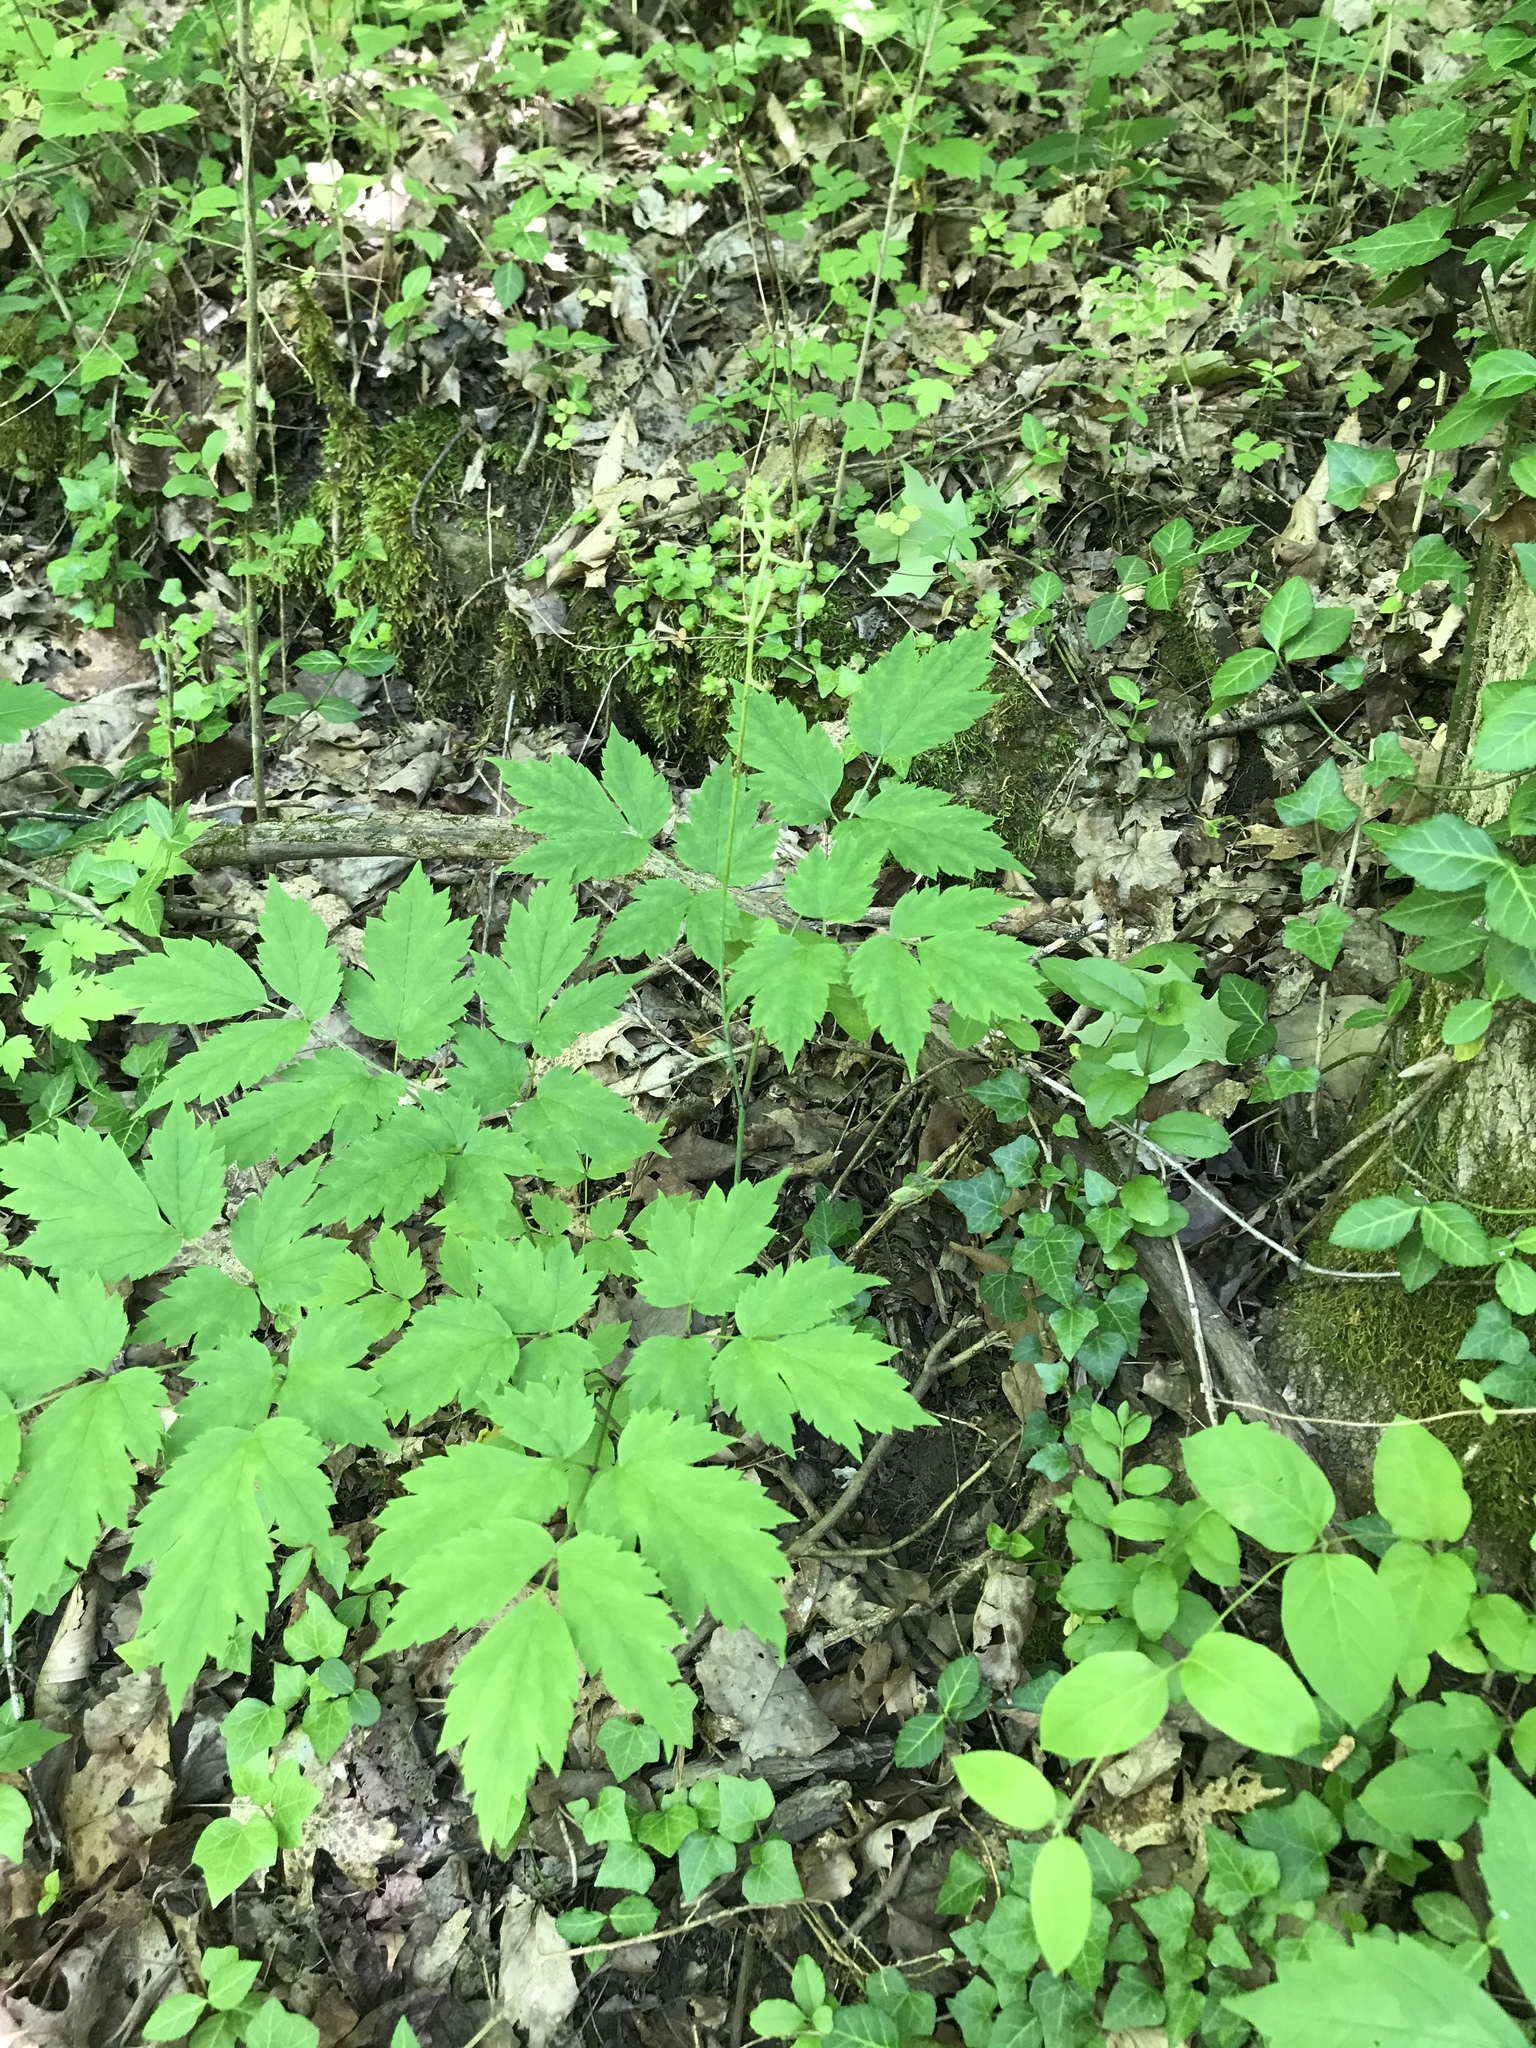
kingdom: Plantae
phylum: Tracheophyta
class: Magnoliopsida
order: Ranunculales
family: Ranunculaceae
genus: Actaea
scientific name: Actaea pachypoda
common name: Doll's-eyes
